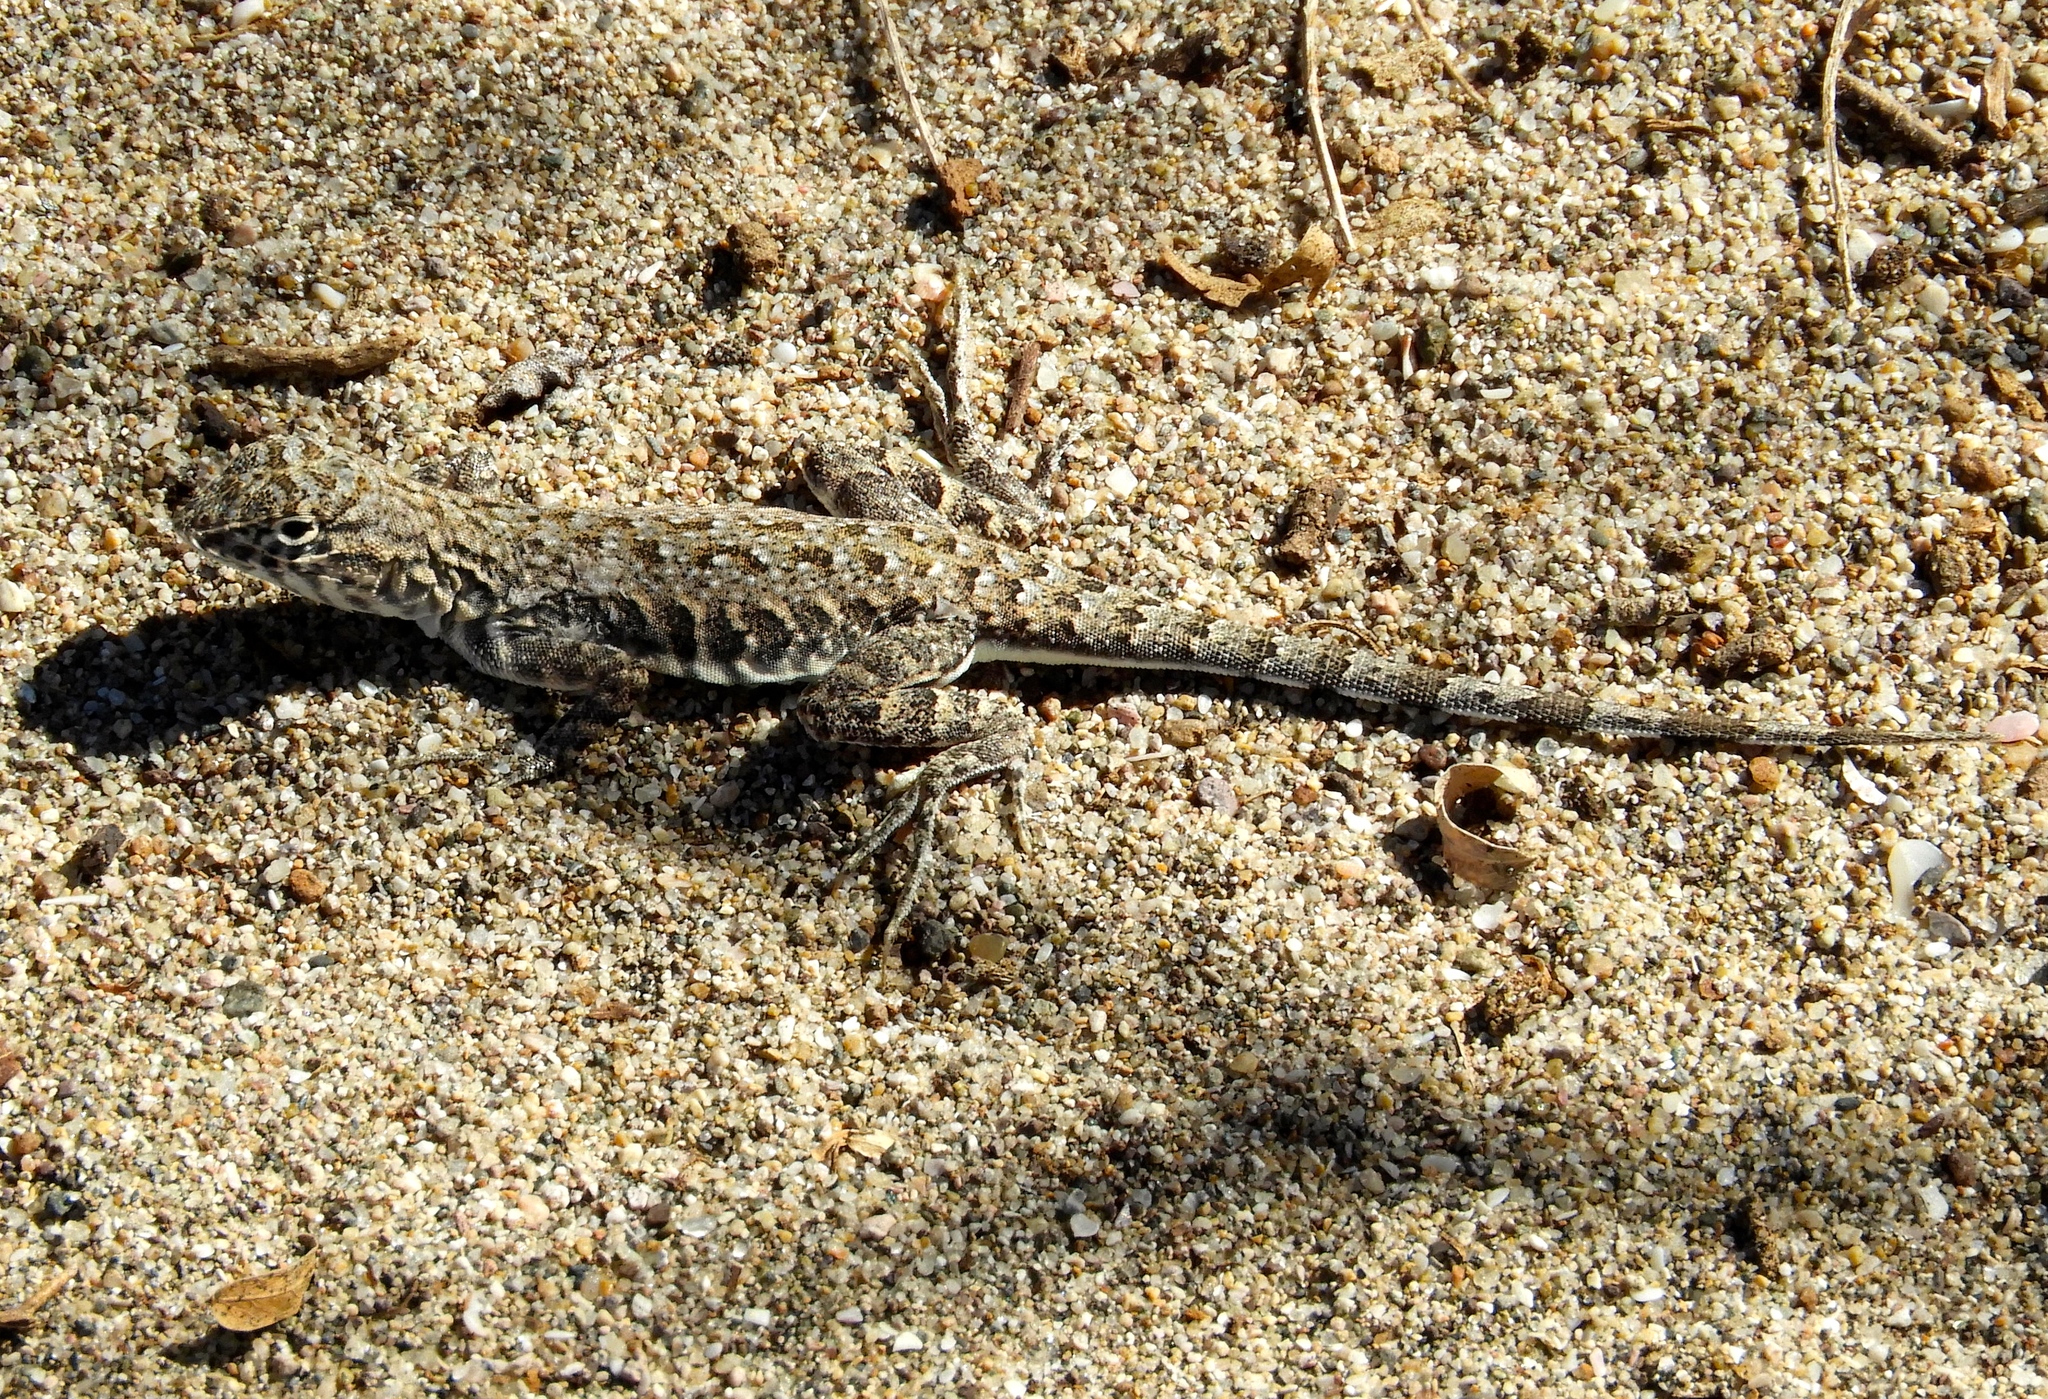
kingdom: Animalia
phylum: Chordata
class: Squamata
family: Phrynosomatidae
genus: Callisaurus
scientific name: Callisaurus draconoides
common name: Zebra-tailed lizard
